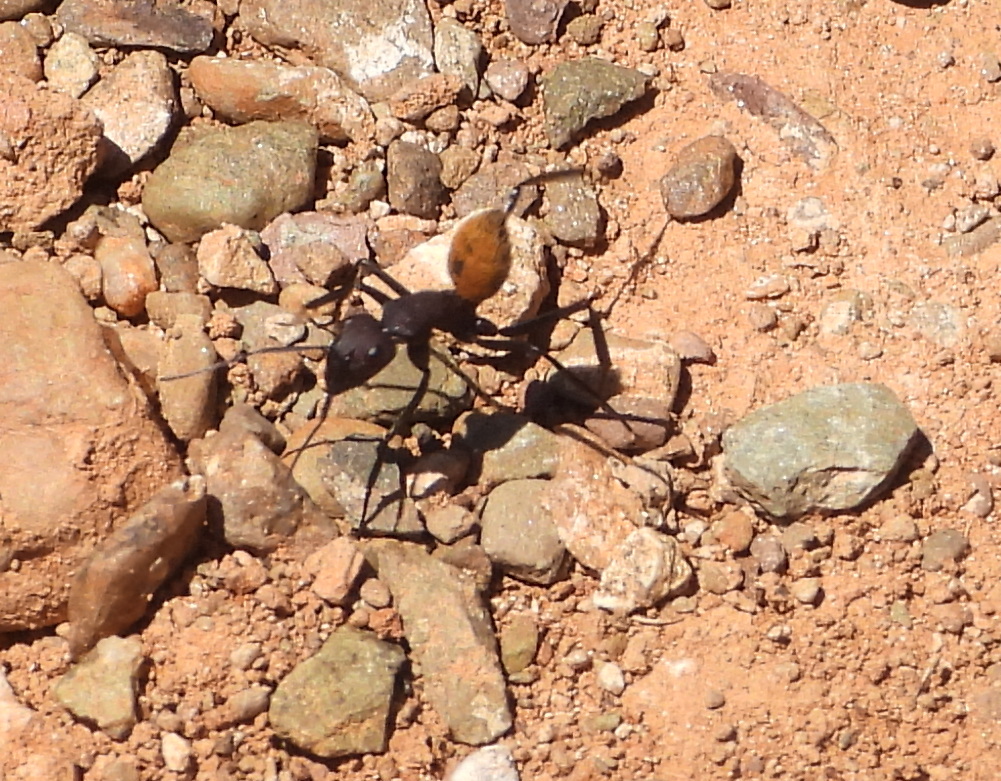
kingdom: Animalia
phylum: Arthropoda
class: Insecta
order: Hymenoptera
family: Formicidae
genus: Camponotus
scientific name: Camponotus fulvopilosus
